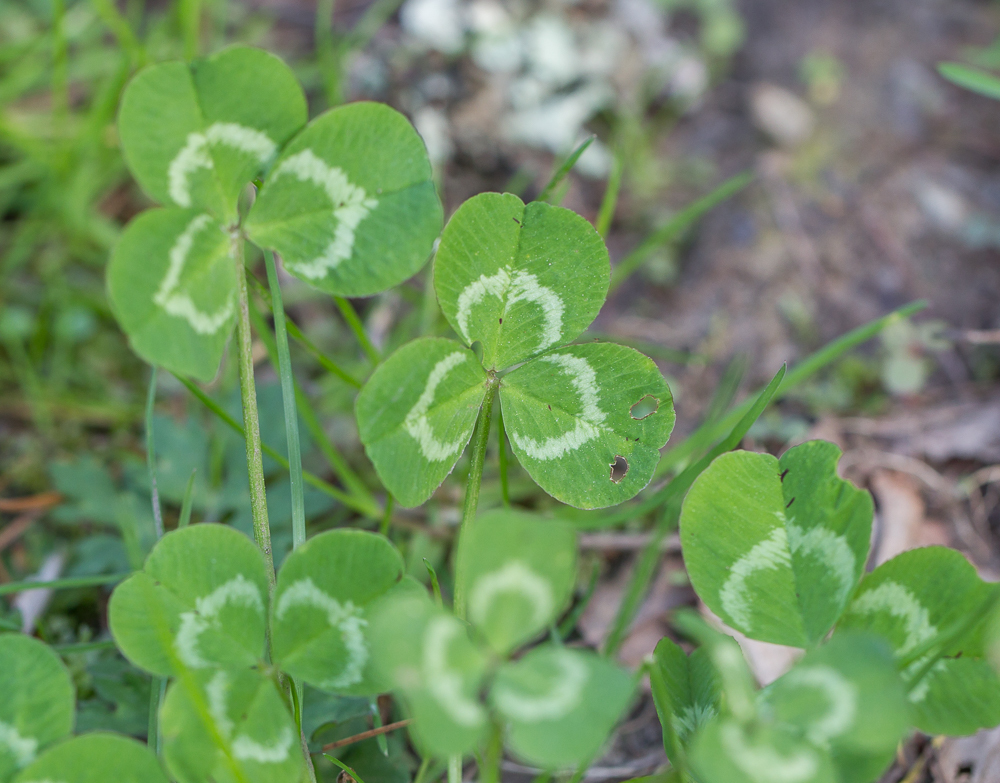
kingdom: Plantae
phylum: Tracheophyta
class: Magnoliopsida
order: Fabales
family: Fabaceae
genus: Trifolium
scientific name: Trifolium repens
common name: White clover
